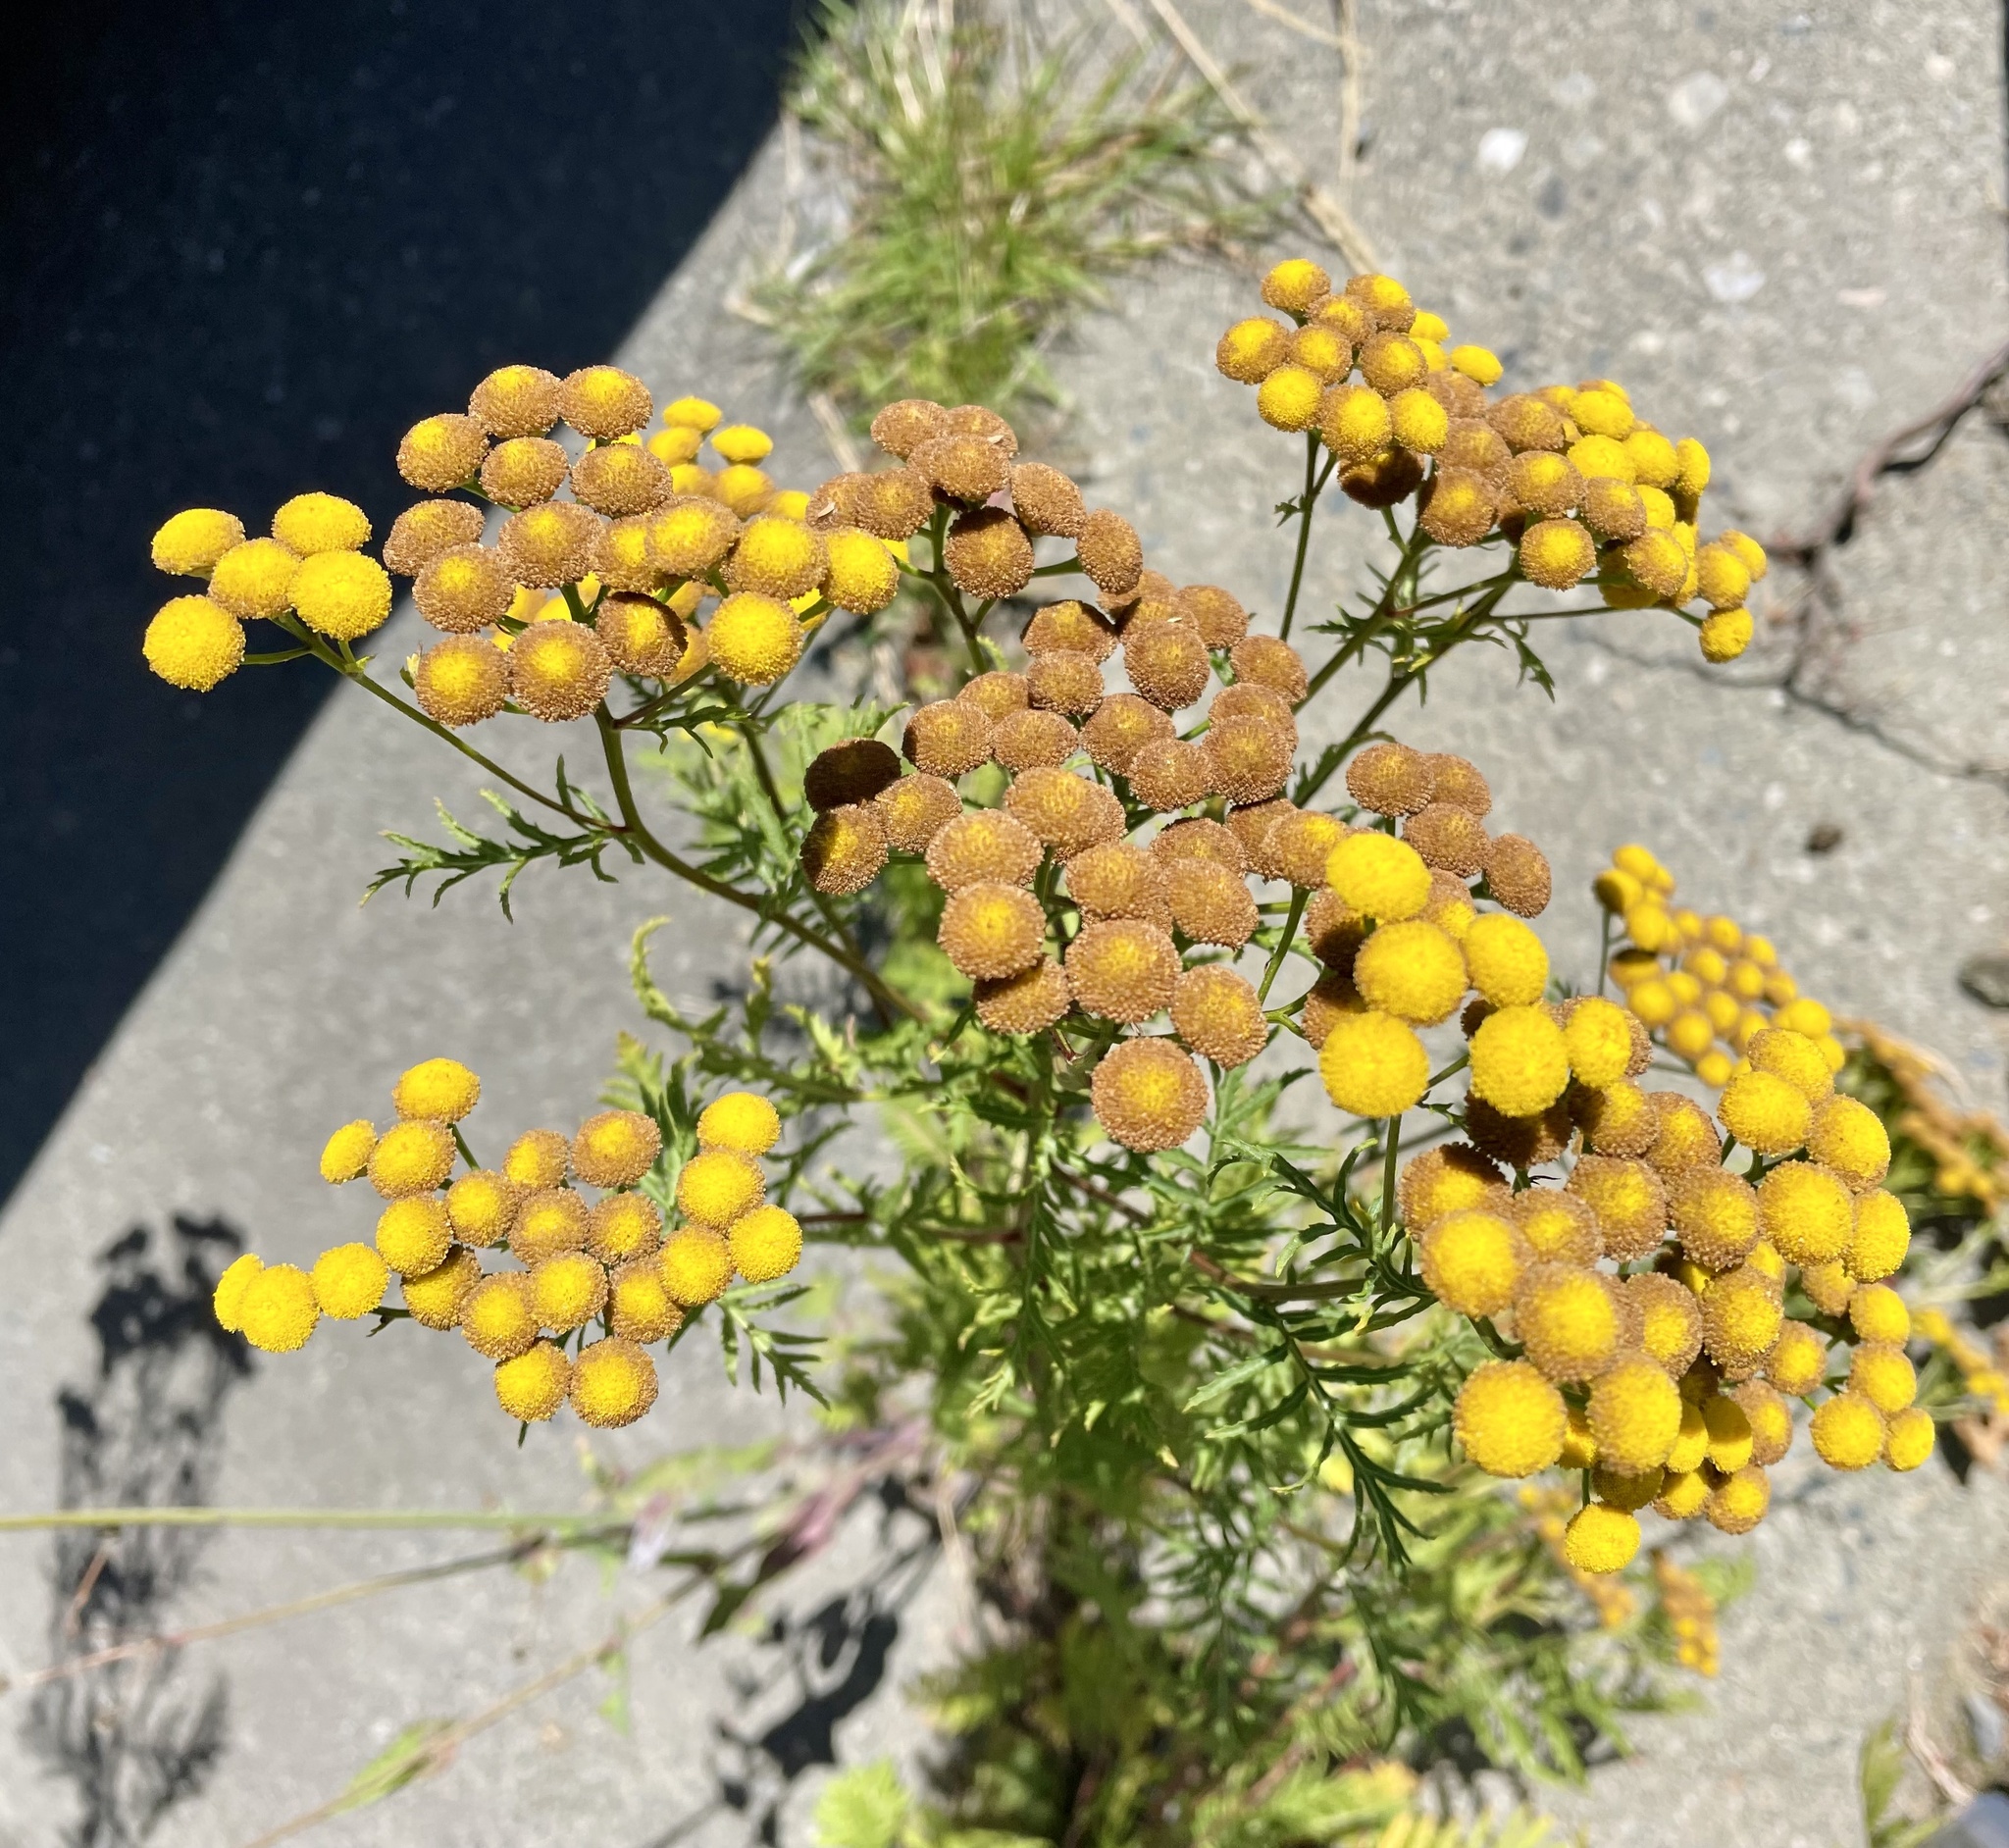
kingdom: Plantae
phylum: Tracheophyta
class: Magnoliopsida
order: Asterales
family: Asteraceae
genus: Tanacetum
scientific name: Tanacetum vulgare
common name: Common tansy
